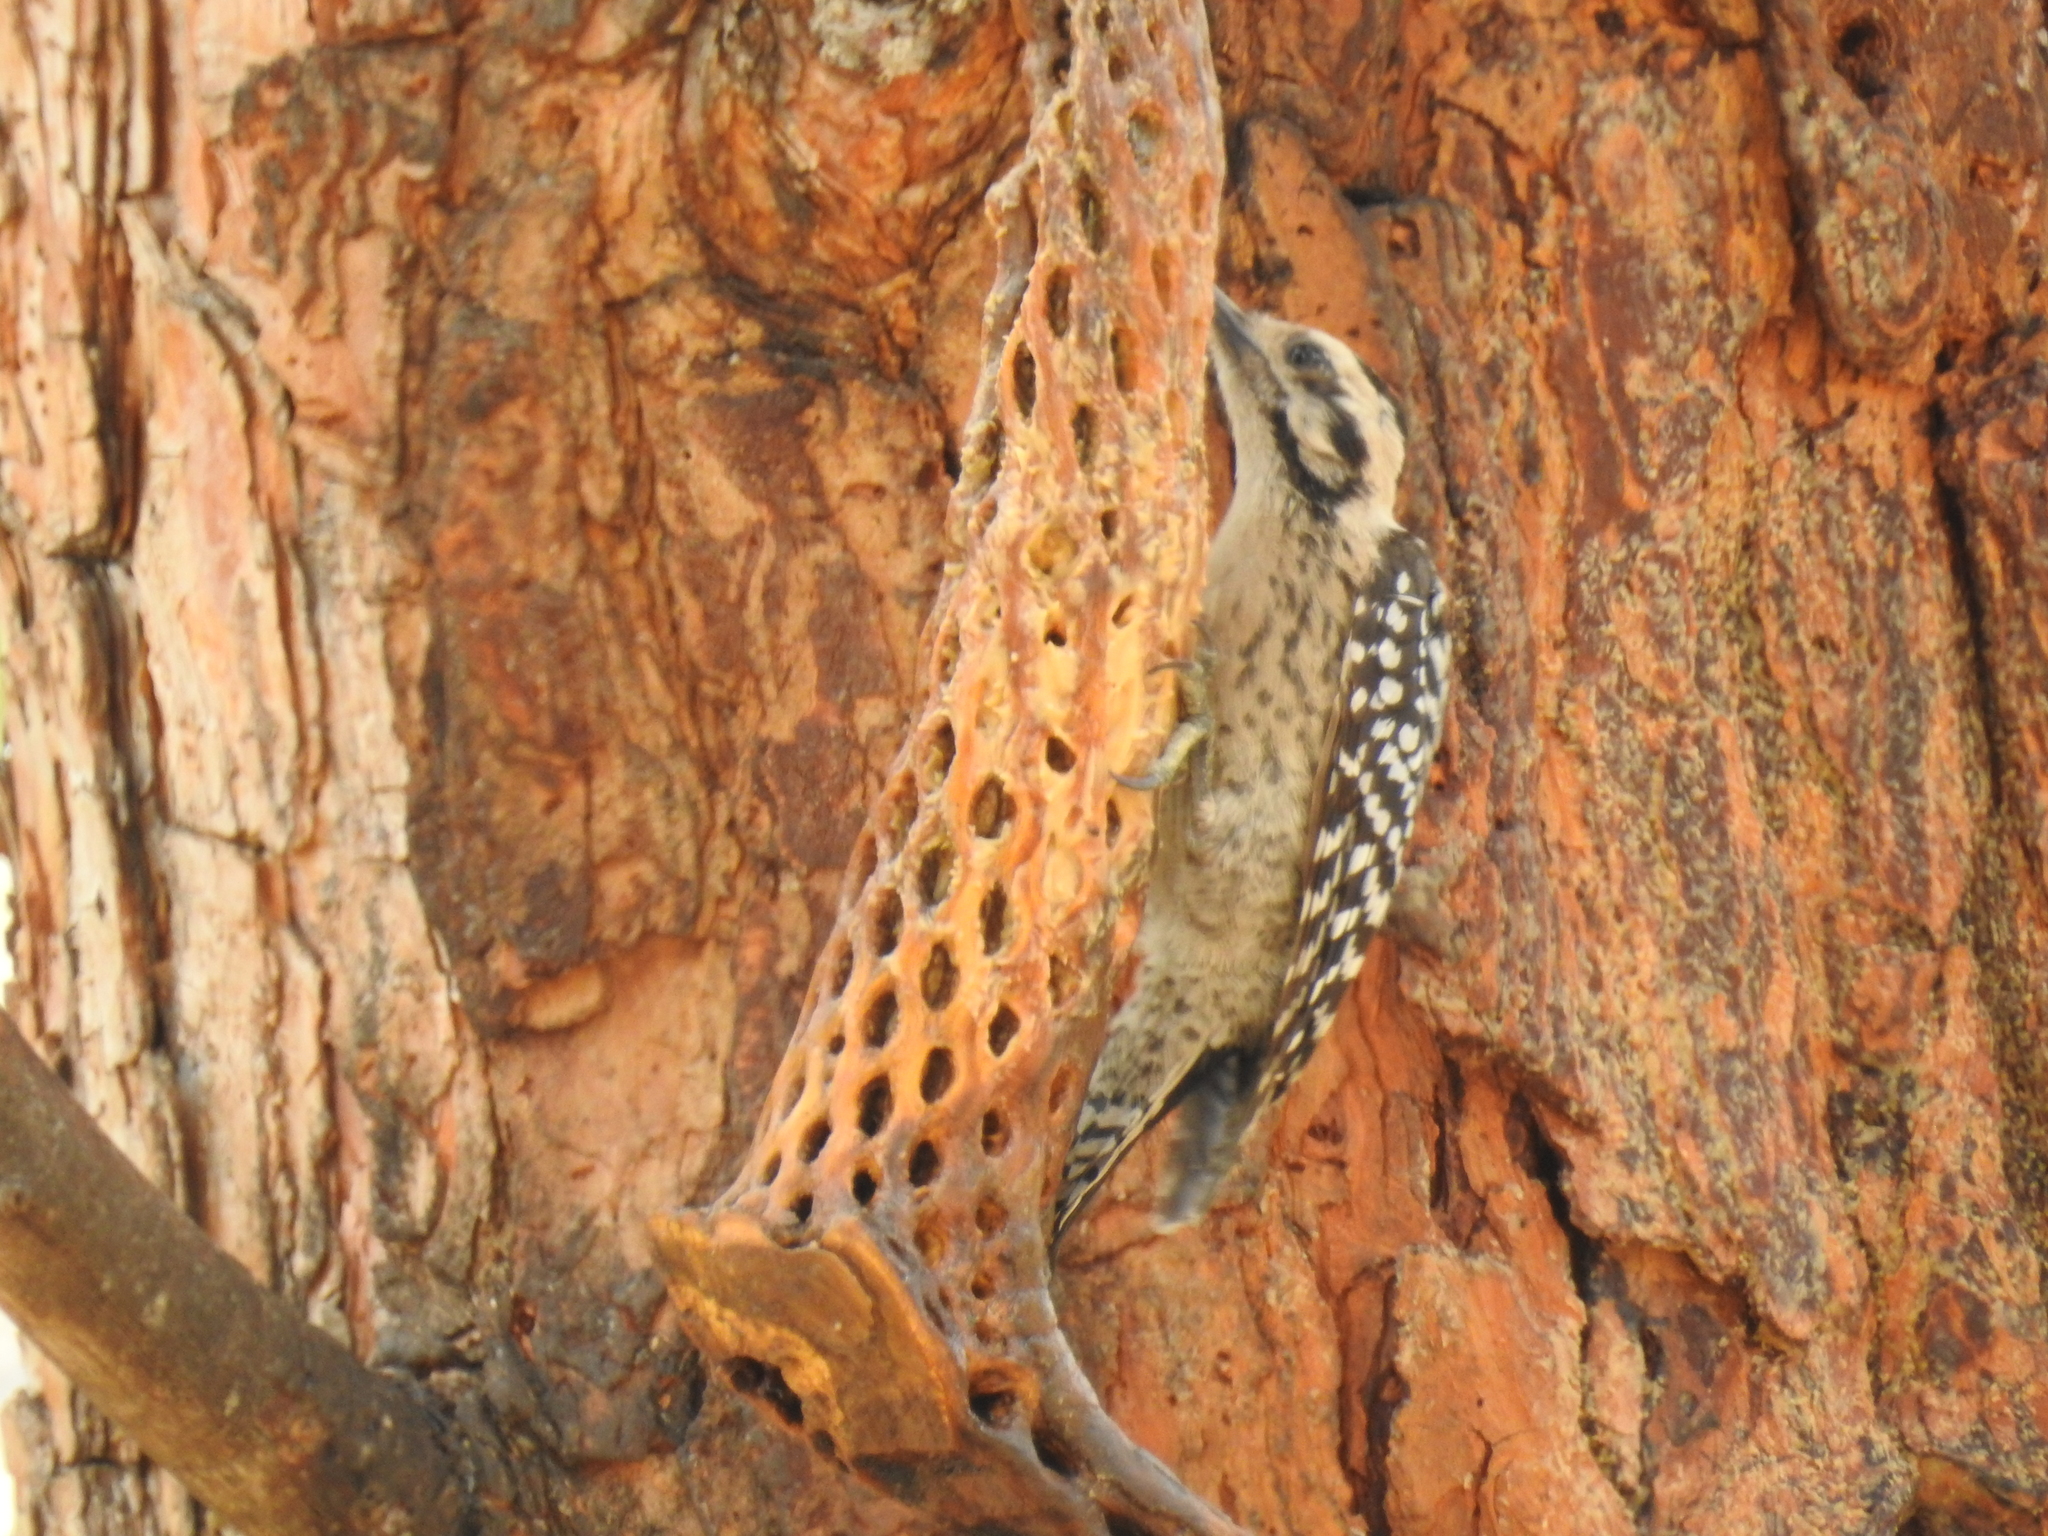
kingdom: Animalia
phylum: Chordata
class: Aves
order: Piciformes
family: Picidae
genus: Dryobates
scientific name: Dryobates scalaris
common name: Ladder-backed woodpecker
